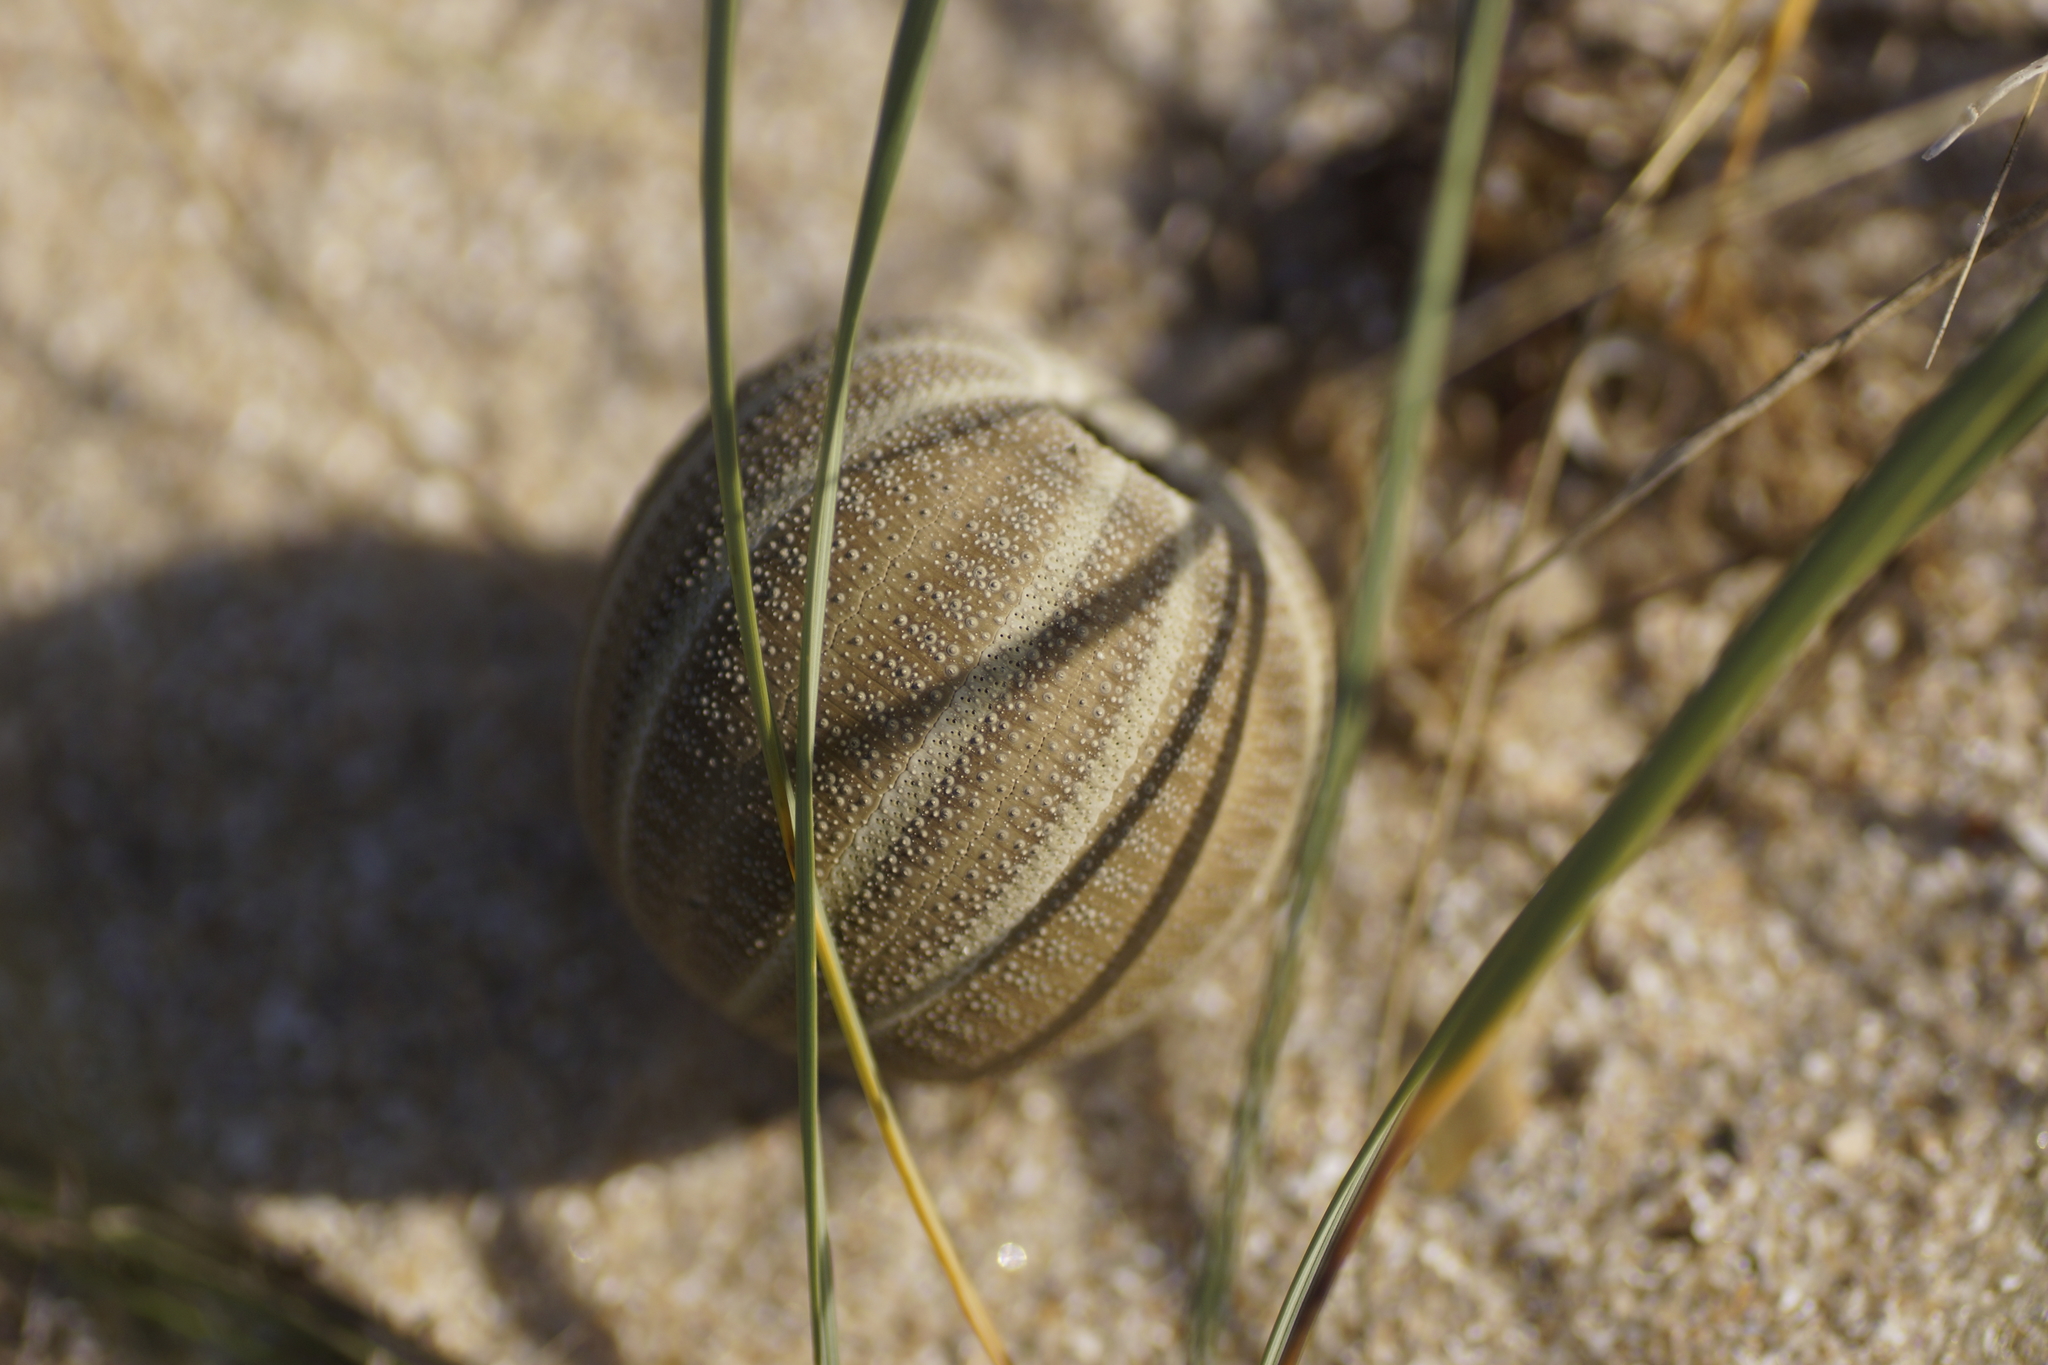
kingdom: Animalia
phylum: Echinodermata
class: Echinoidea
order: Camarodonta
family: Temnopleuridae
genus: Amblypneustes
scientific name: Amblypneustes ovum
